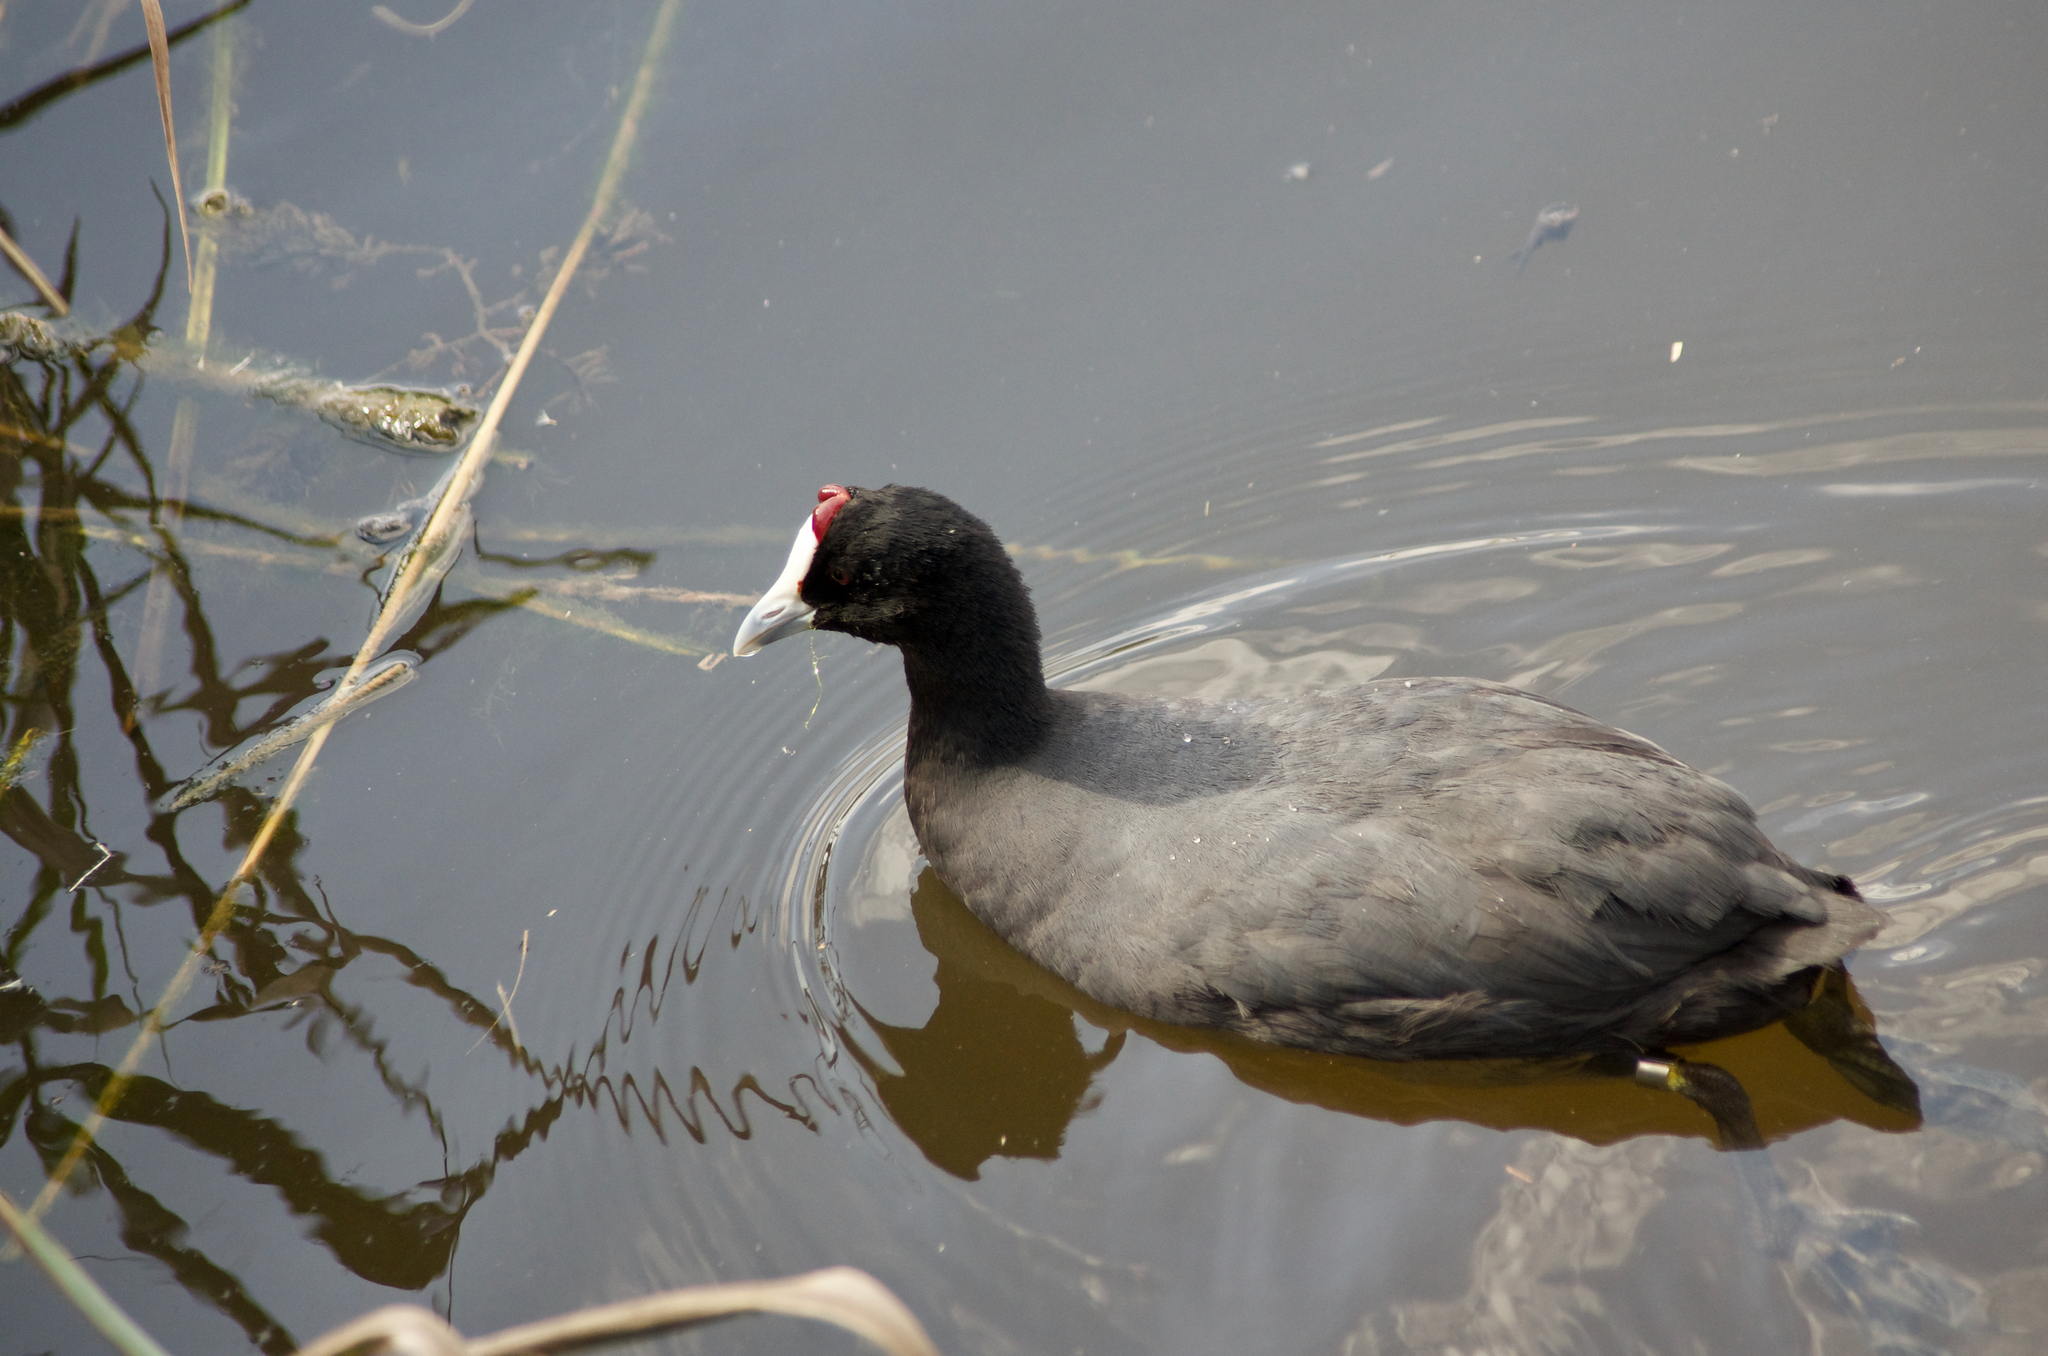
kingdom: Animalia
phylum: Chordata
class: Aves
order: Gruiformes
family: Rallidae
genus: Fulica
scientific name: Fulica cristata
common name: Red-knobbed coot
